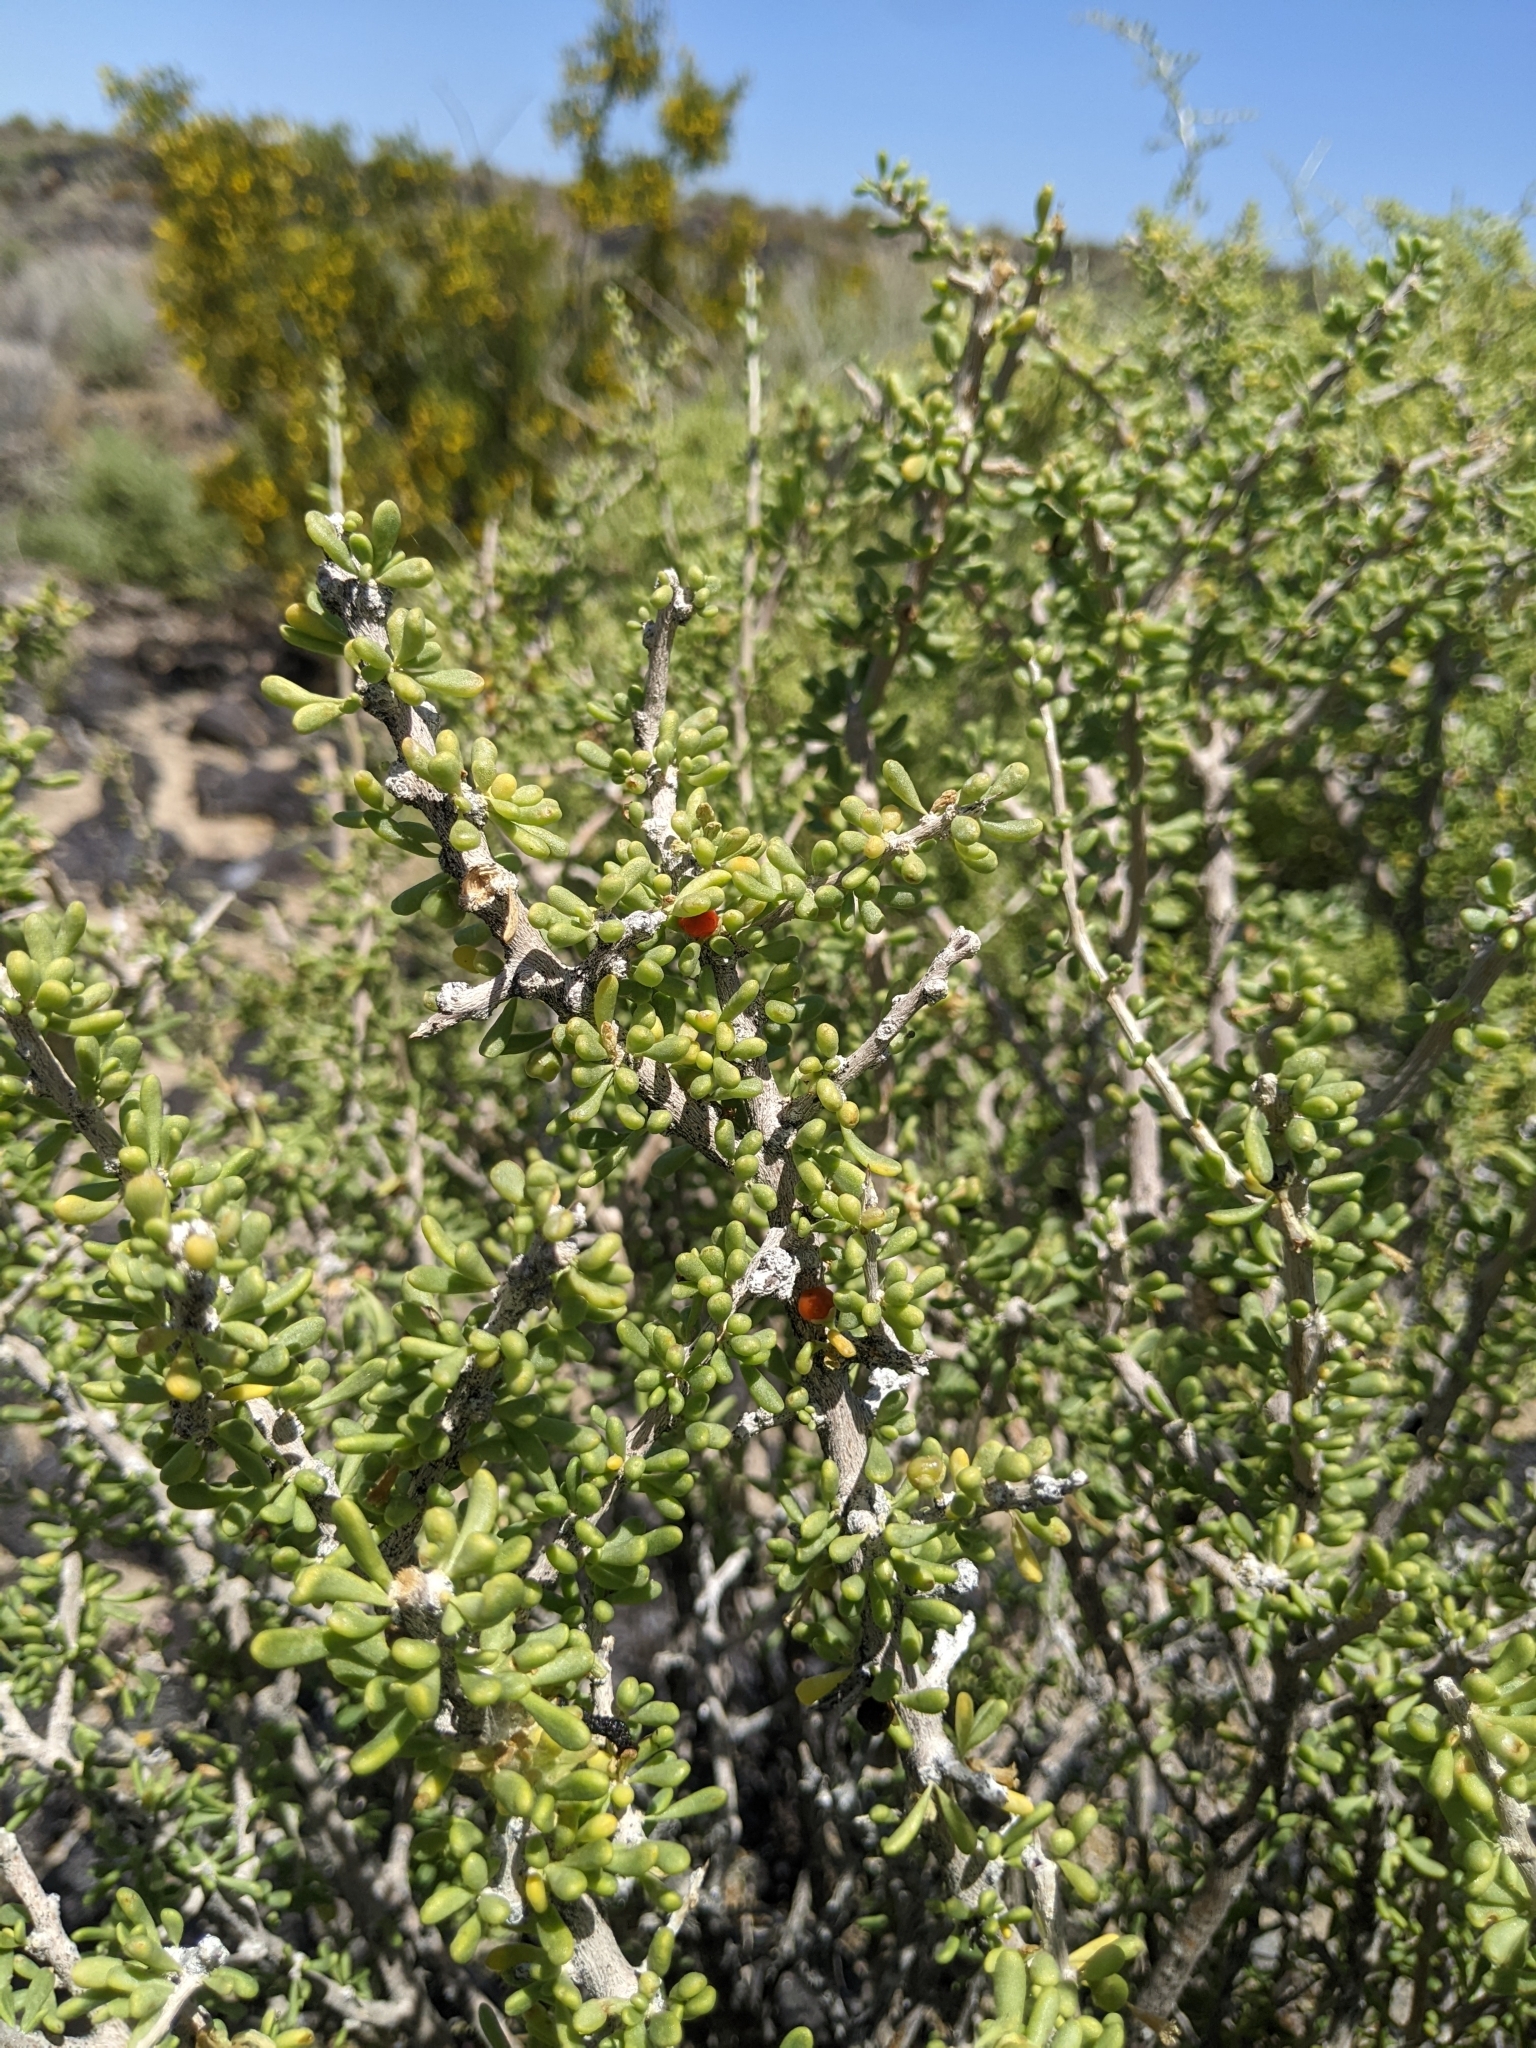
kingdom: Plantae
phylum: Tracheophyta
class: Magnoliopsida
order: Solanales
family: Solanaceae
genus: Lycium
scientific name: Lycium andersonii
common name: Water-jacket
